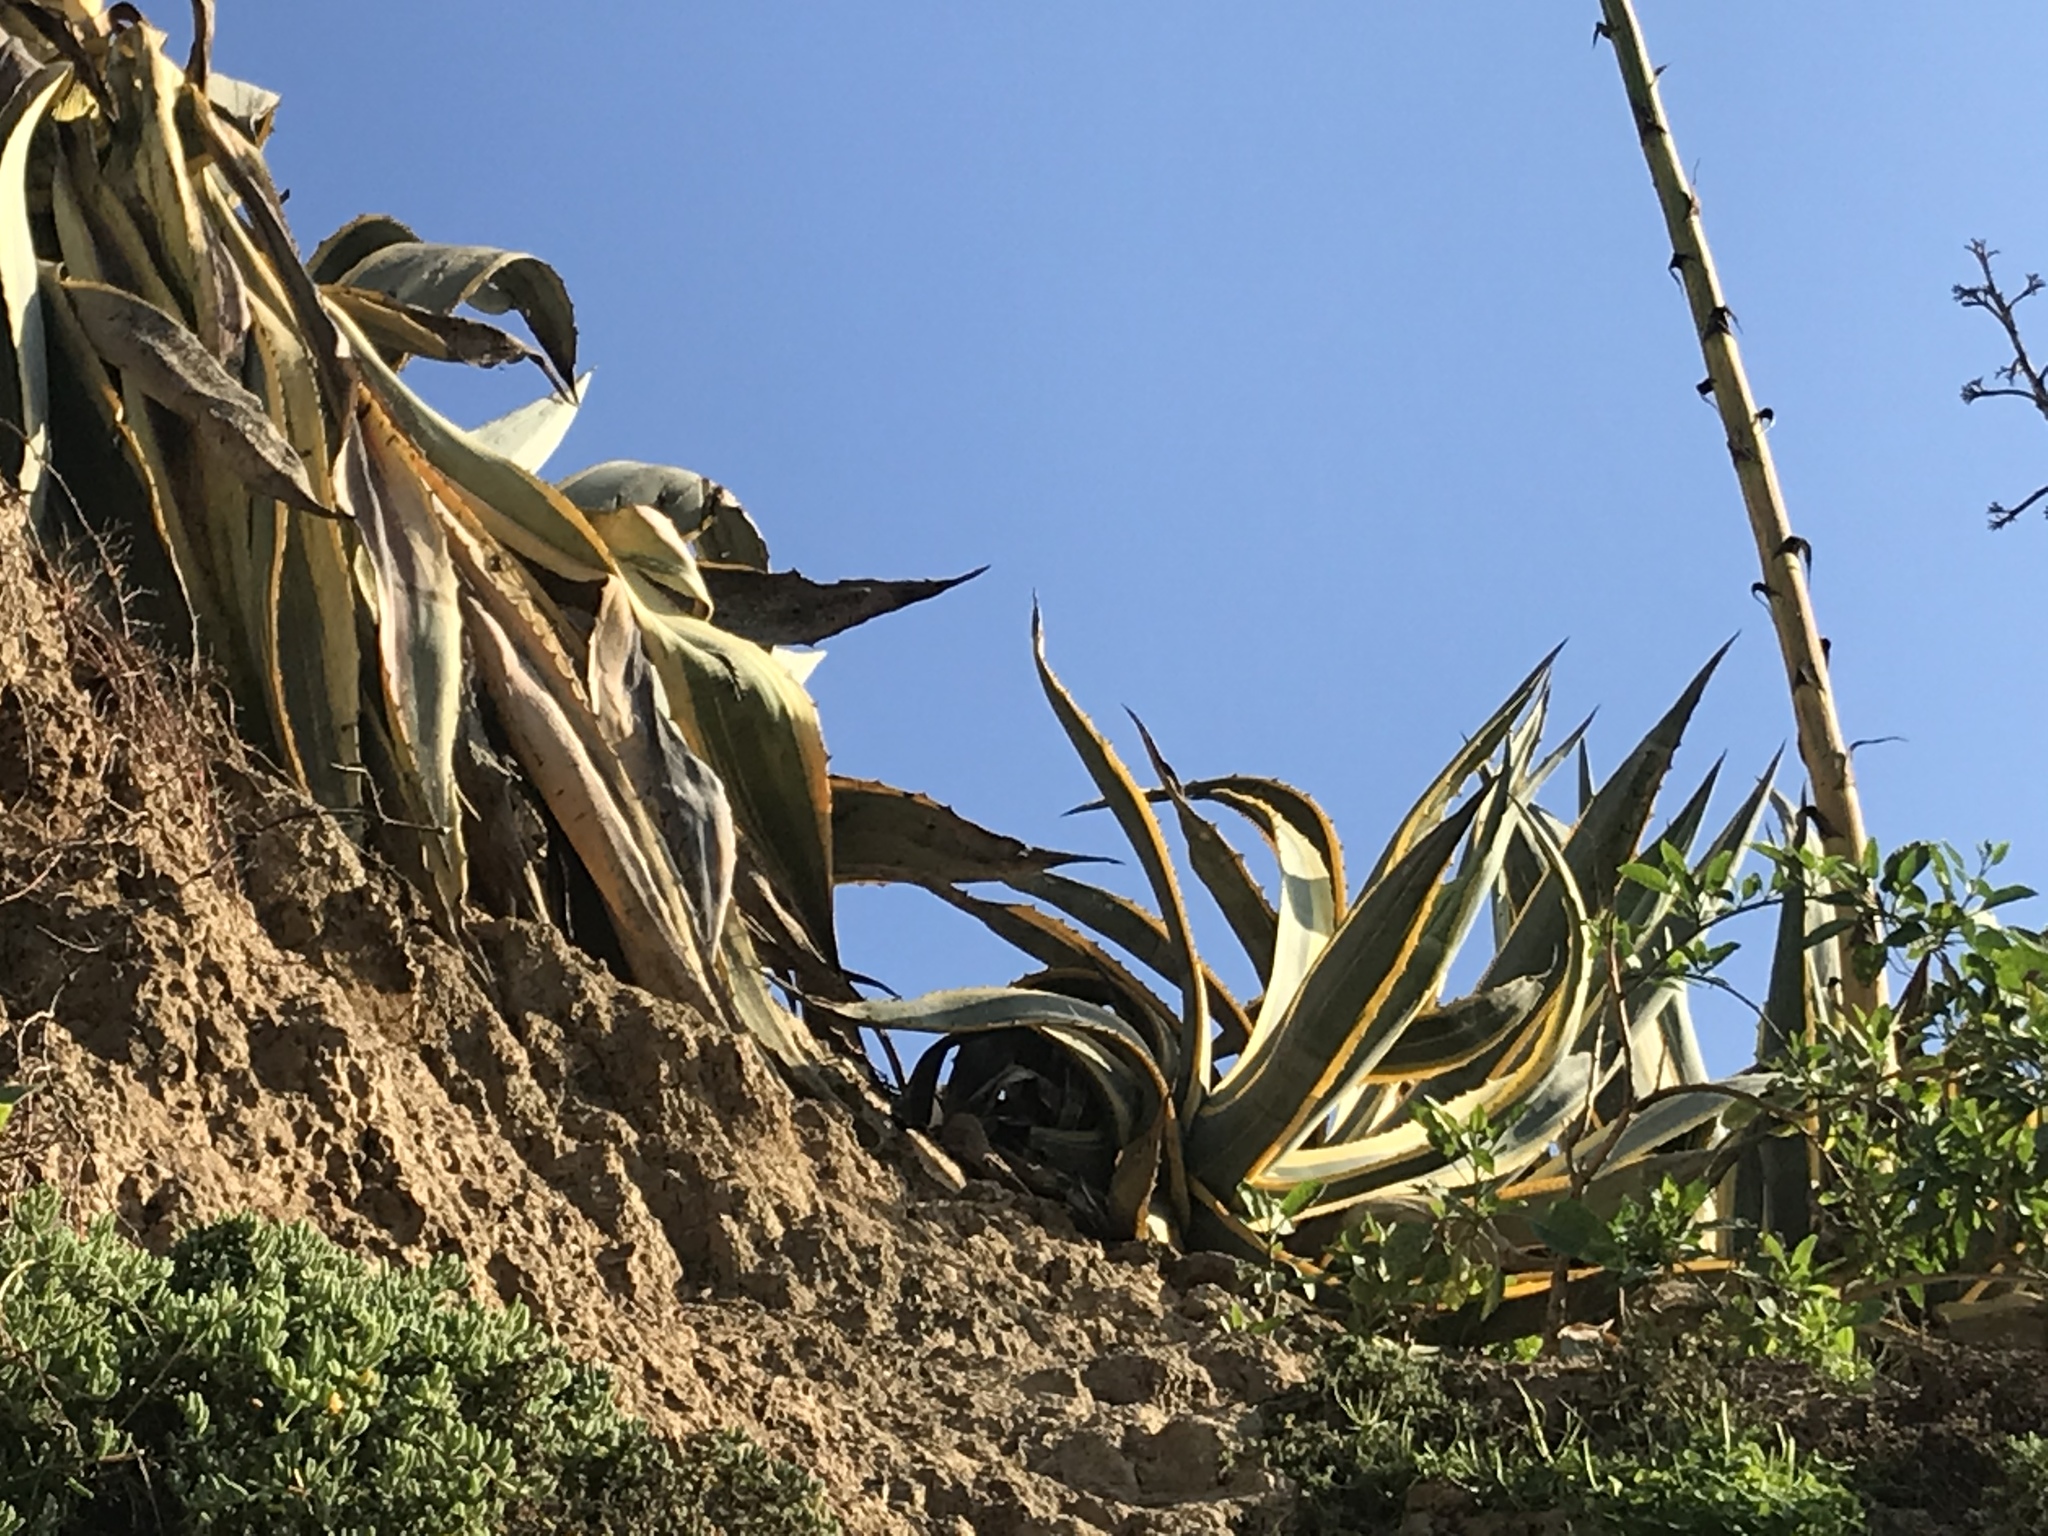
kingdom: Plantae
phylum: Tracheophyta
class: Liliopsida
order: Asparagales
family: Asparagaceae
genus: Agave
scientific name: Agave americana
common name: Centuryplant
